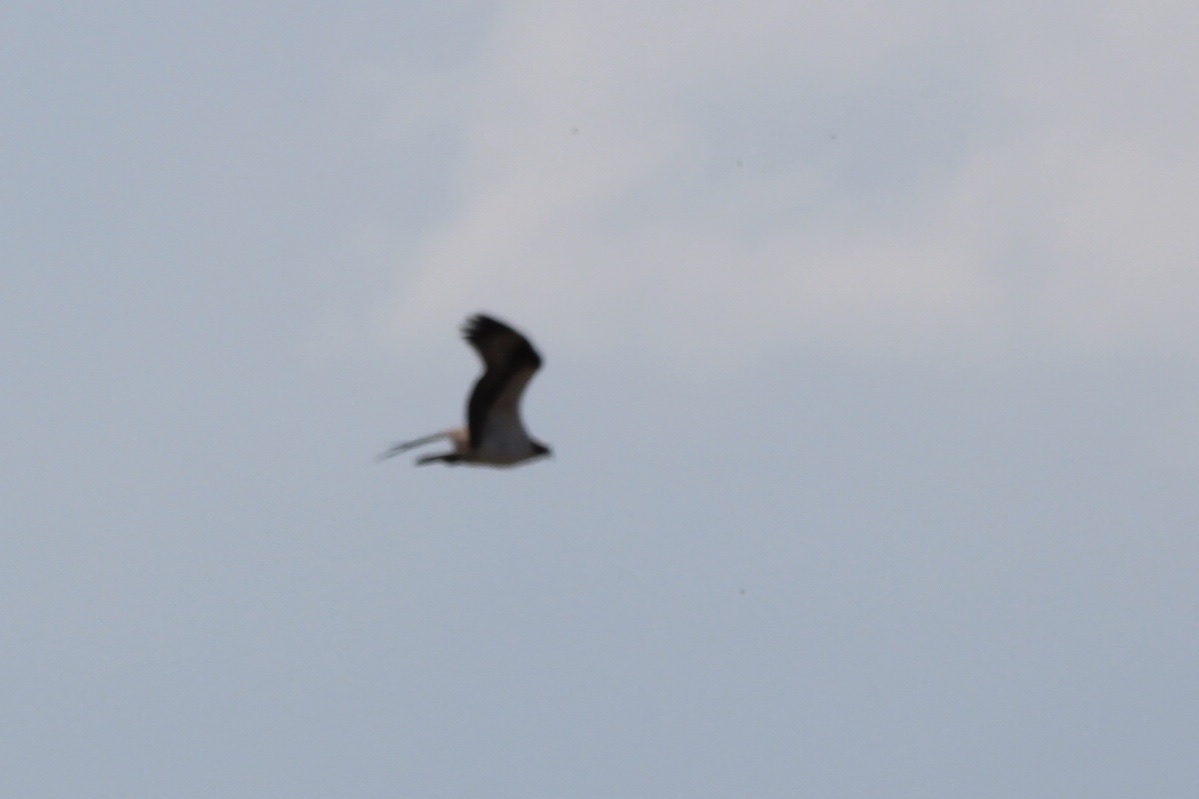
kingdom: Animalia
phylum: Chordata
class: Aves
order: Accipitriformes
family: Pandionidae
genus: Pandion
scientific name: Pandion haliaetus
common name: Osprey
